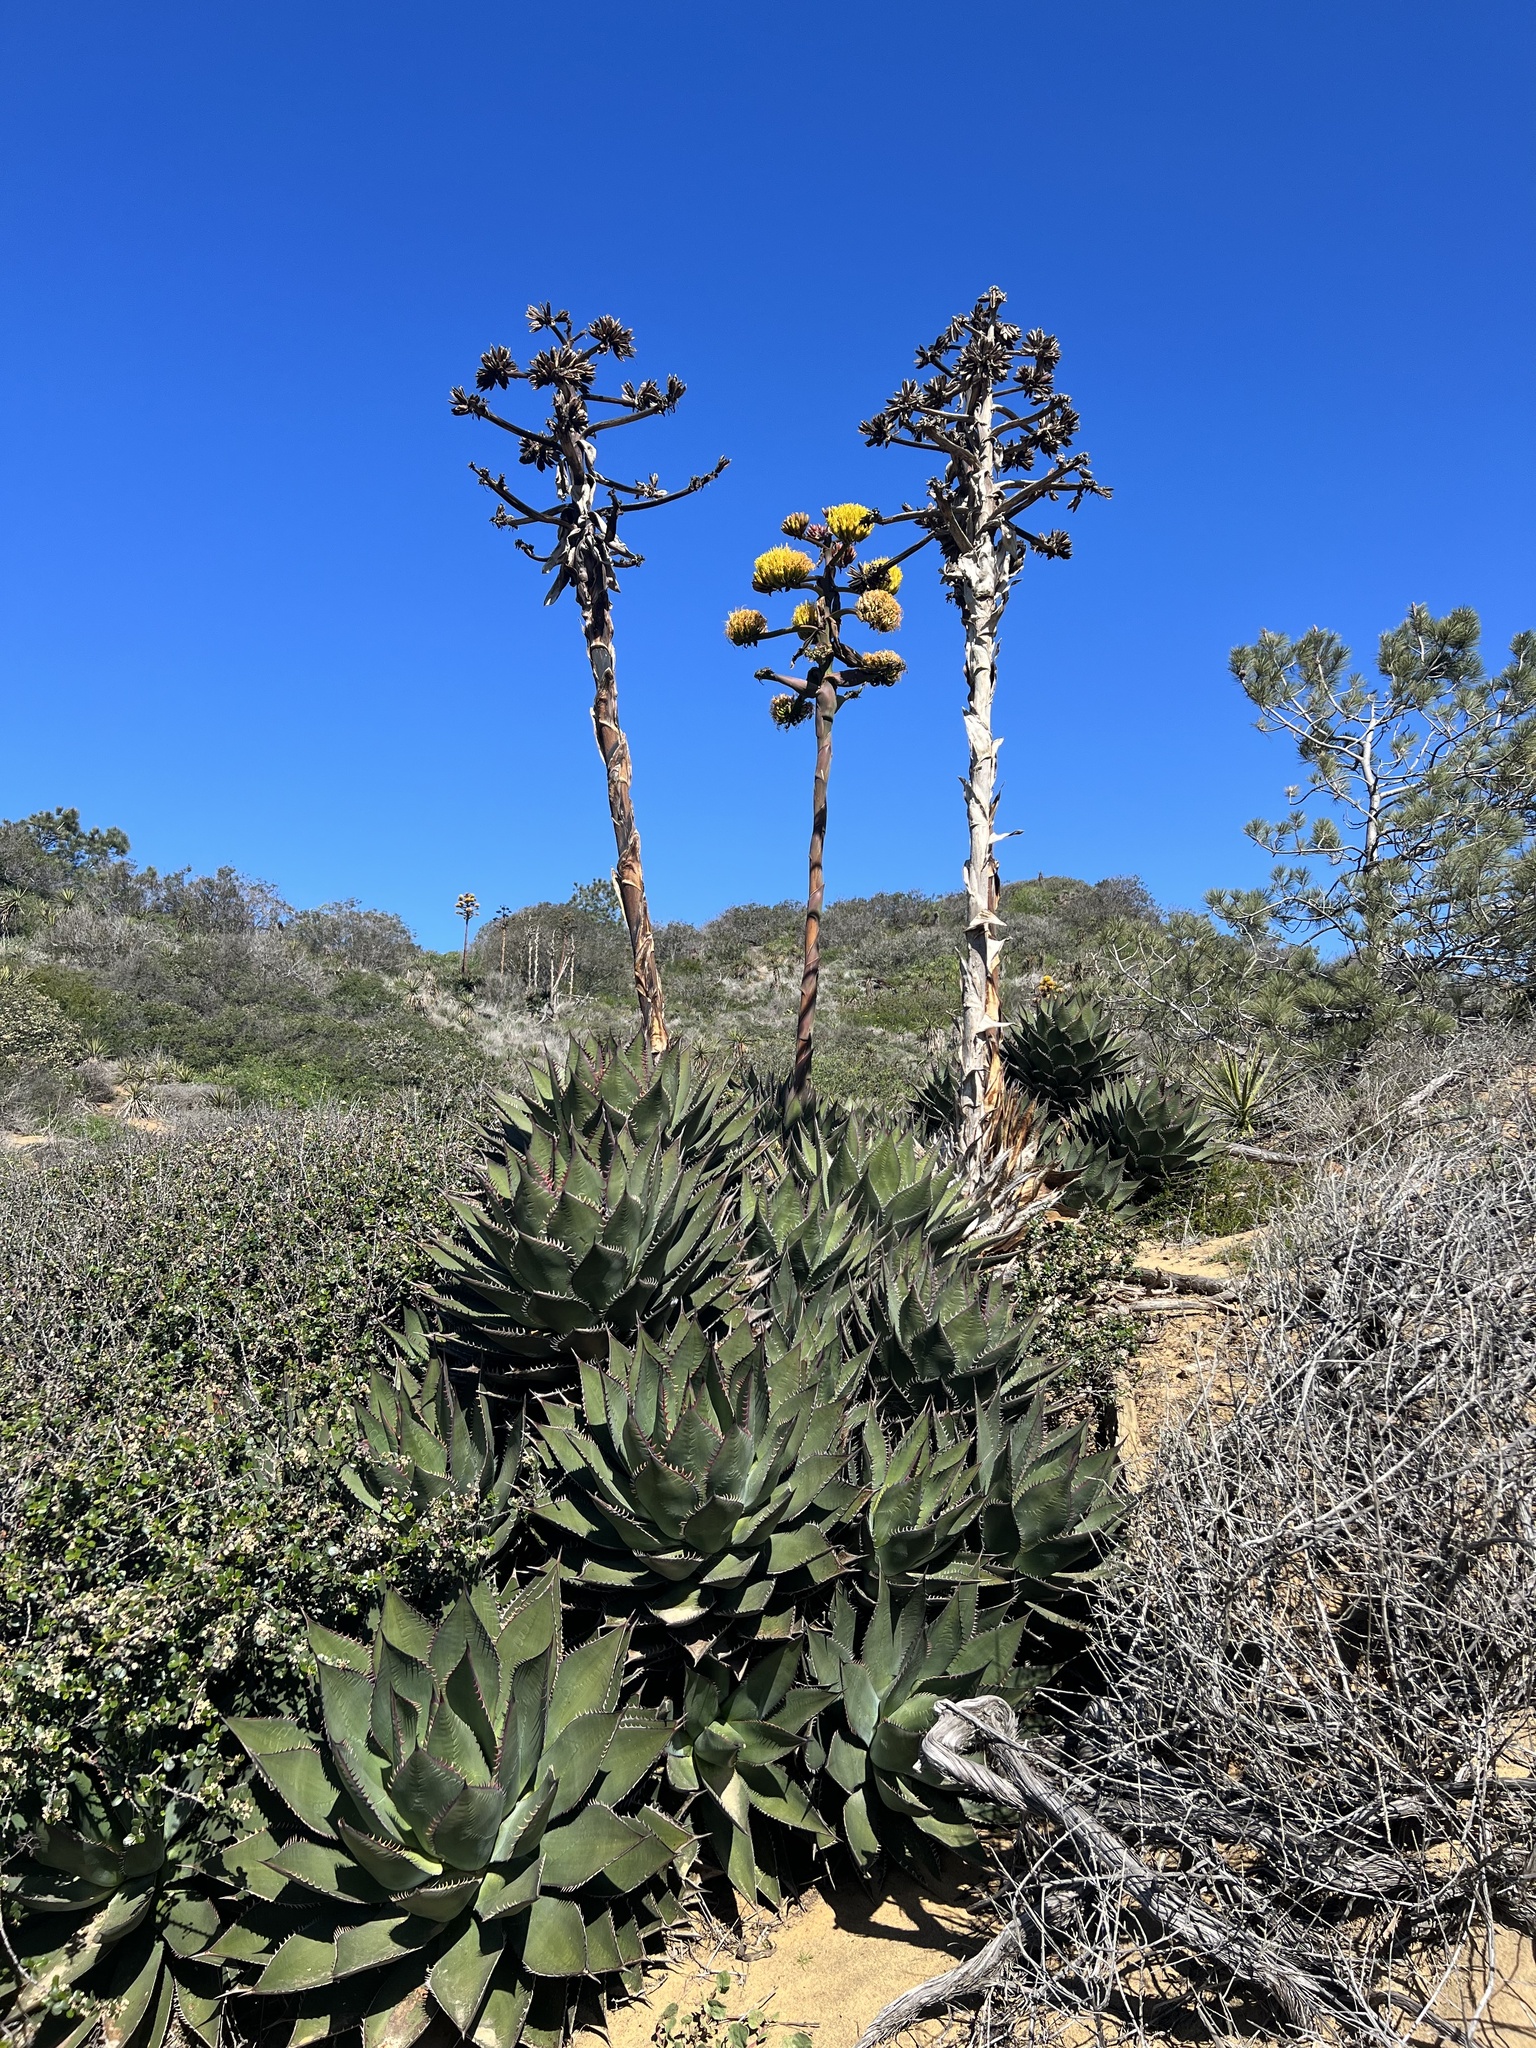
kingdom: Plantae
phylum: Tracheophyta
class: Liliopsida
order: Asparagales
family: Asparagaceae
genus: Agave
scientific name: Agave shawii
